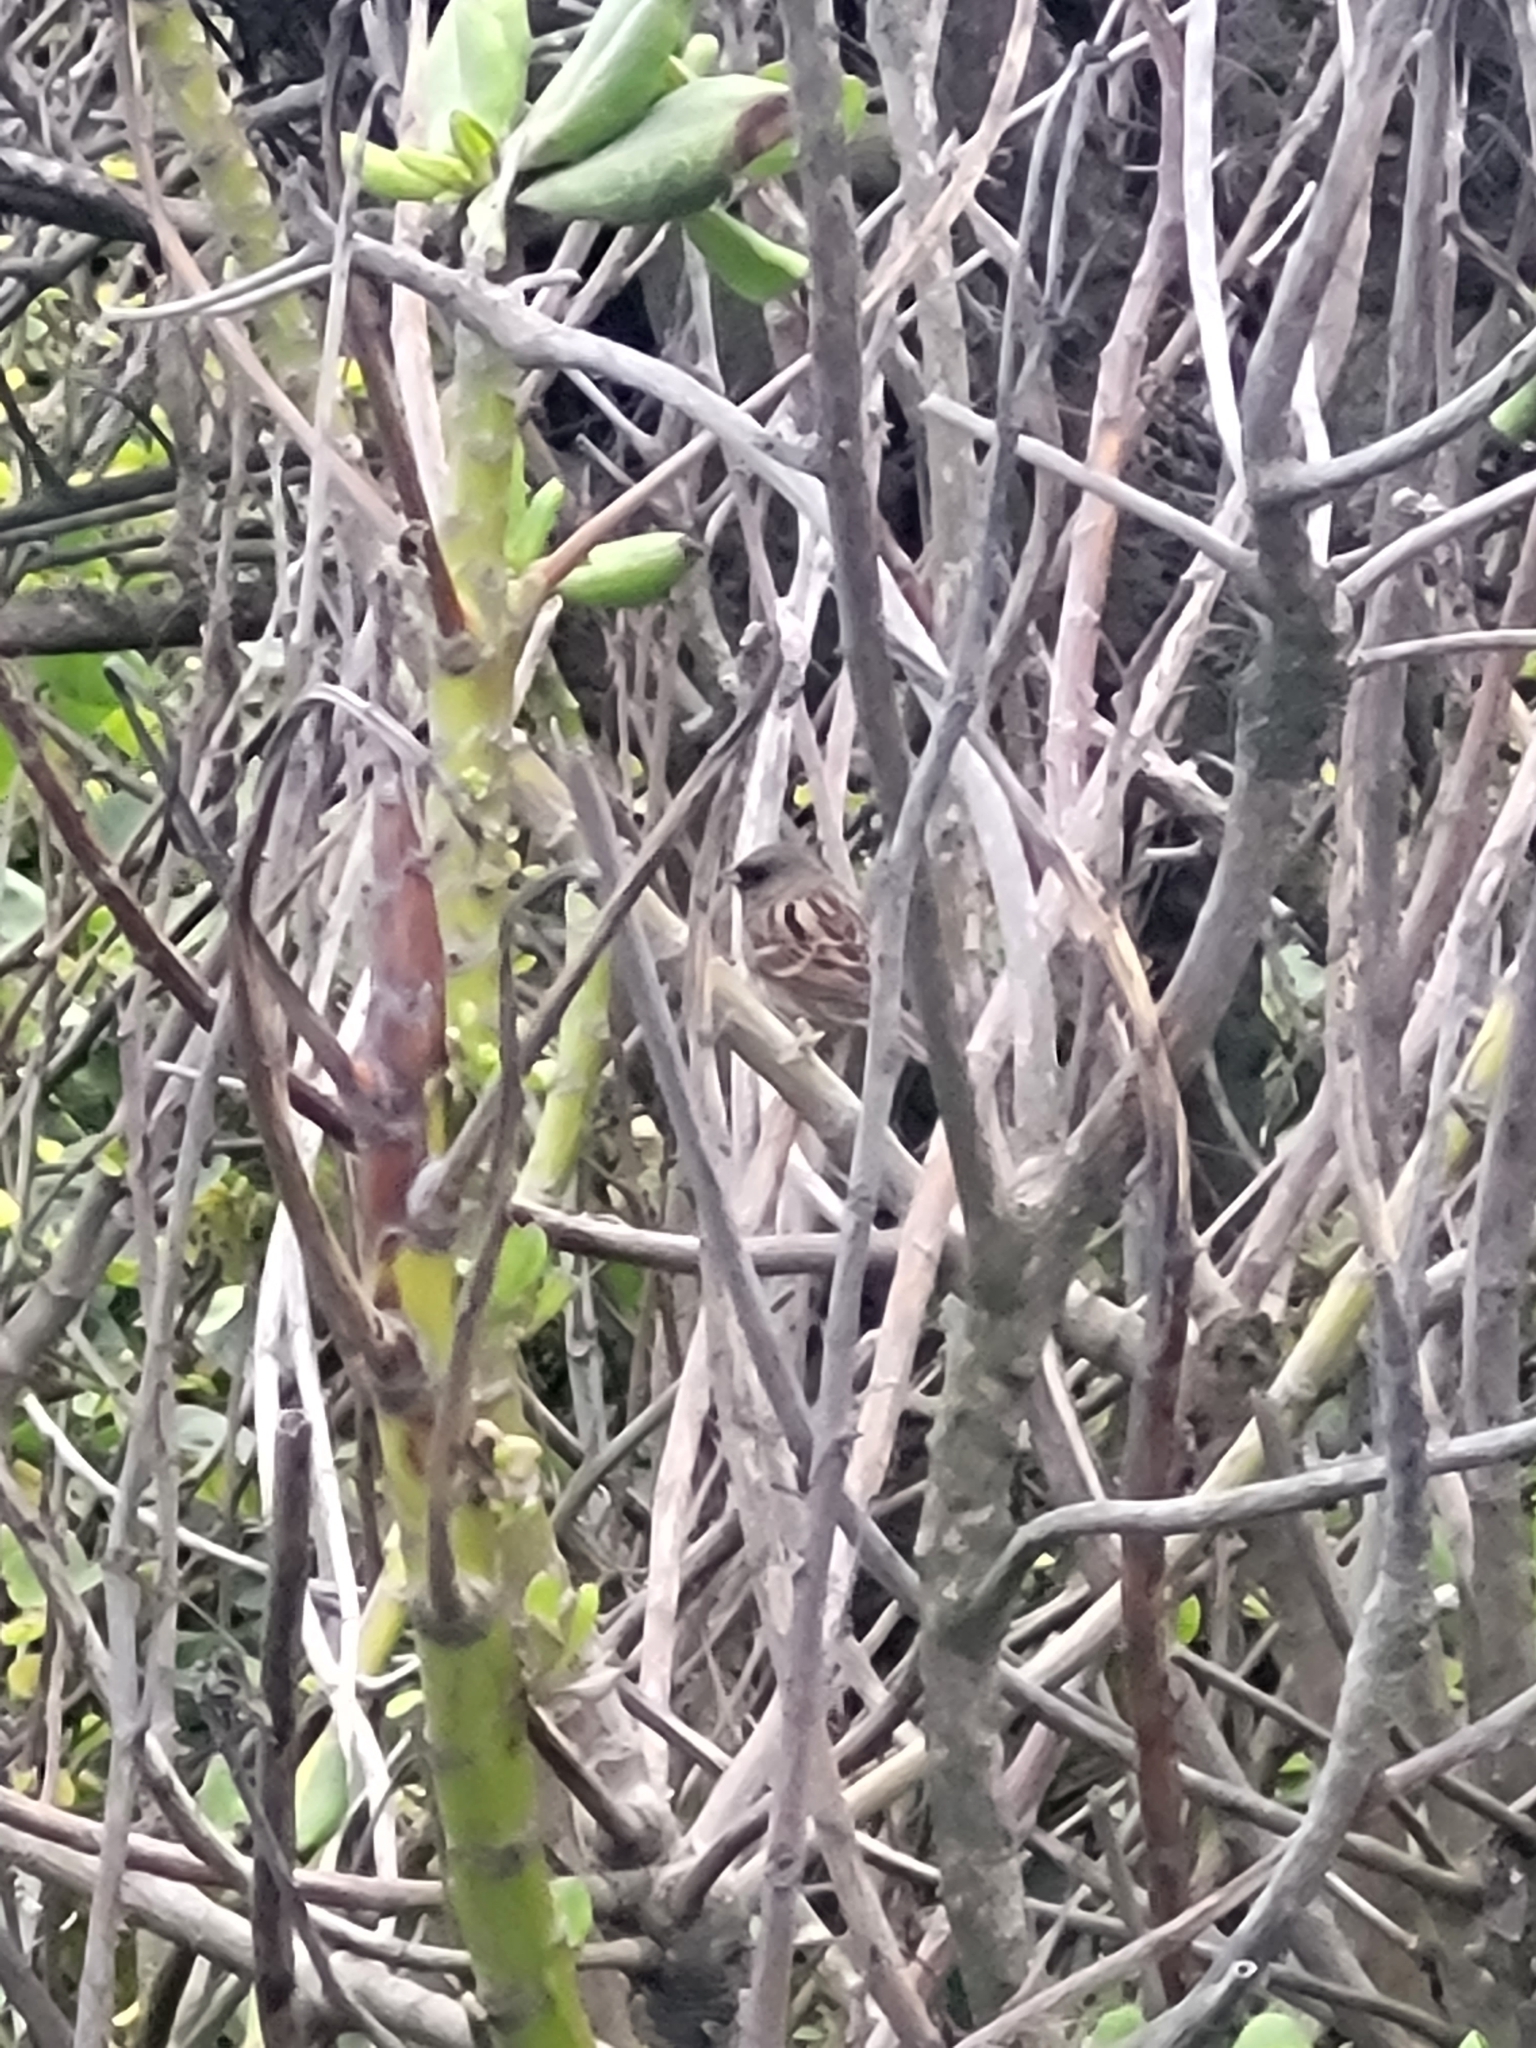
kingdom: Animalia
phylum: Chordata
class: Aves
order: Passeriformes
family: Emberizidae
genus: Emberiza
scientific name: Emberiza spodocephala
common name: Black-faced bunting
